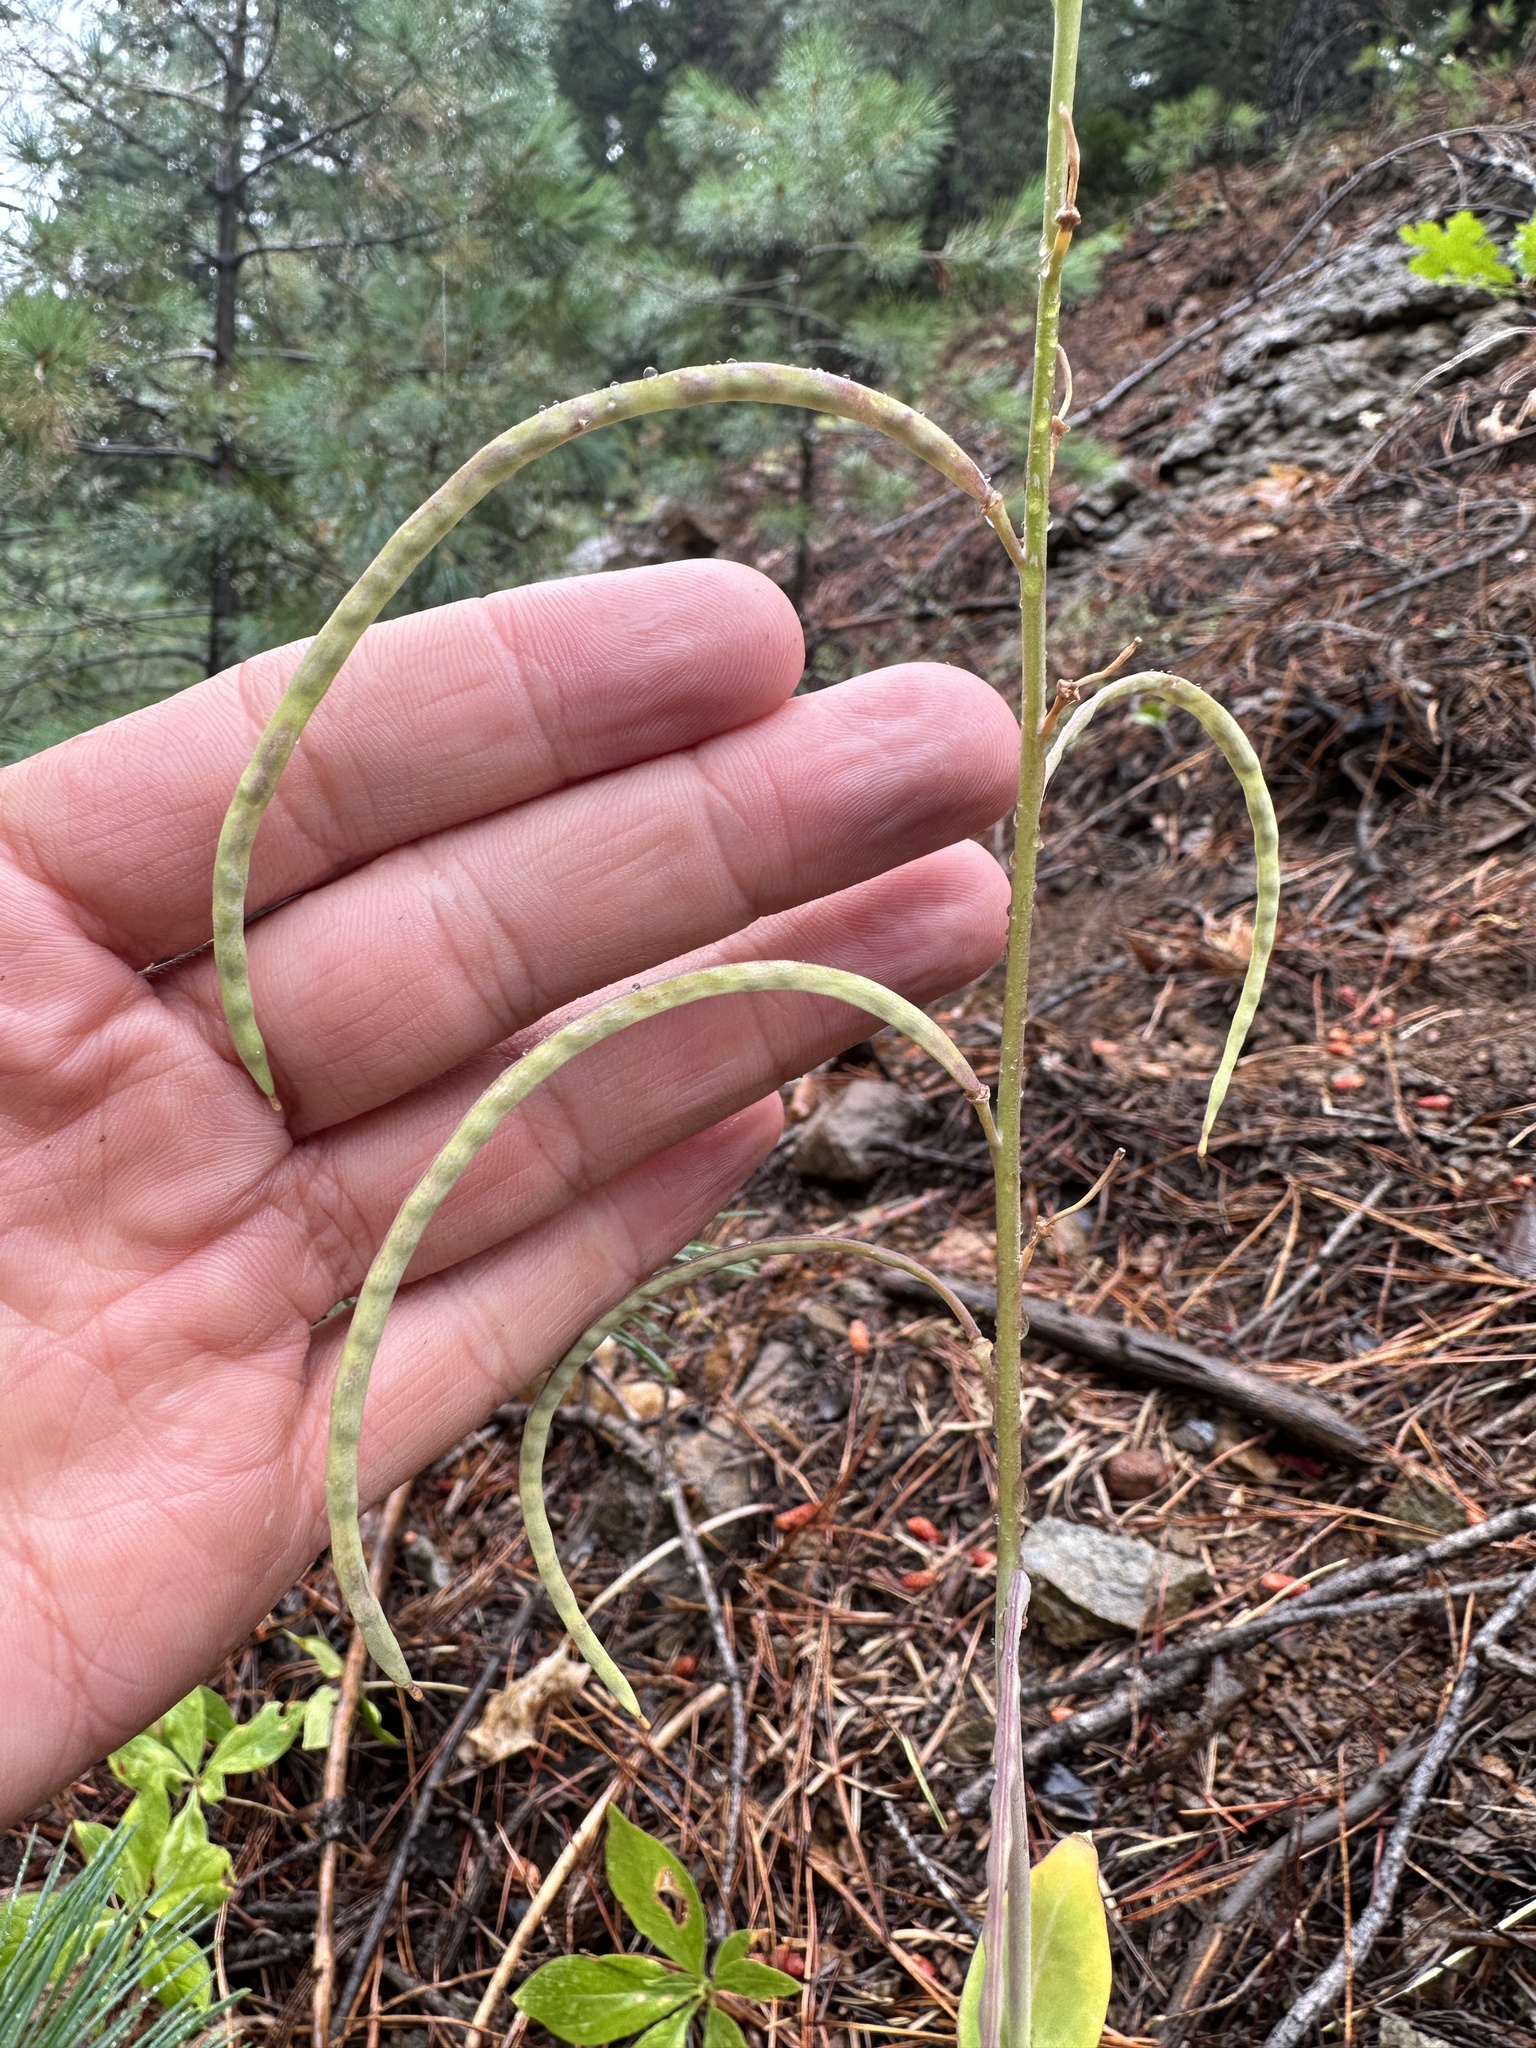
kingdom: Plantae
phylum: Tracheophyta
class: Magnoliopsida
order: Brassicales
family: Brassicaceae
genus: Streptanthus
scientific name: Streptanthus longisiliquus
